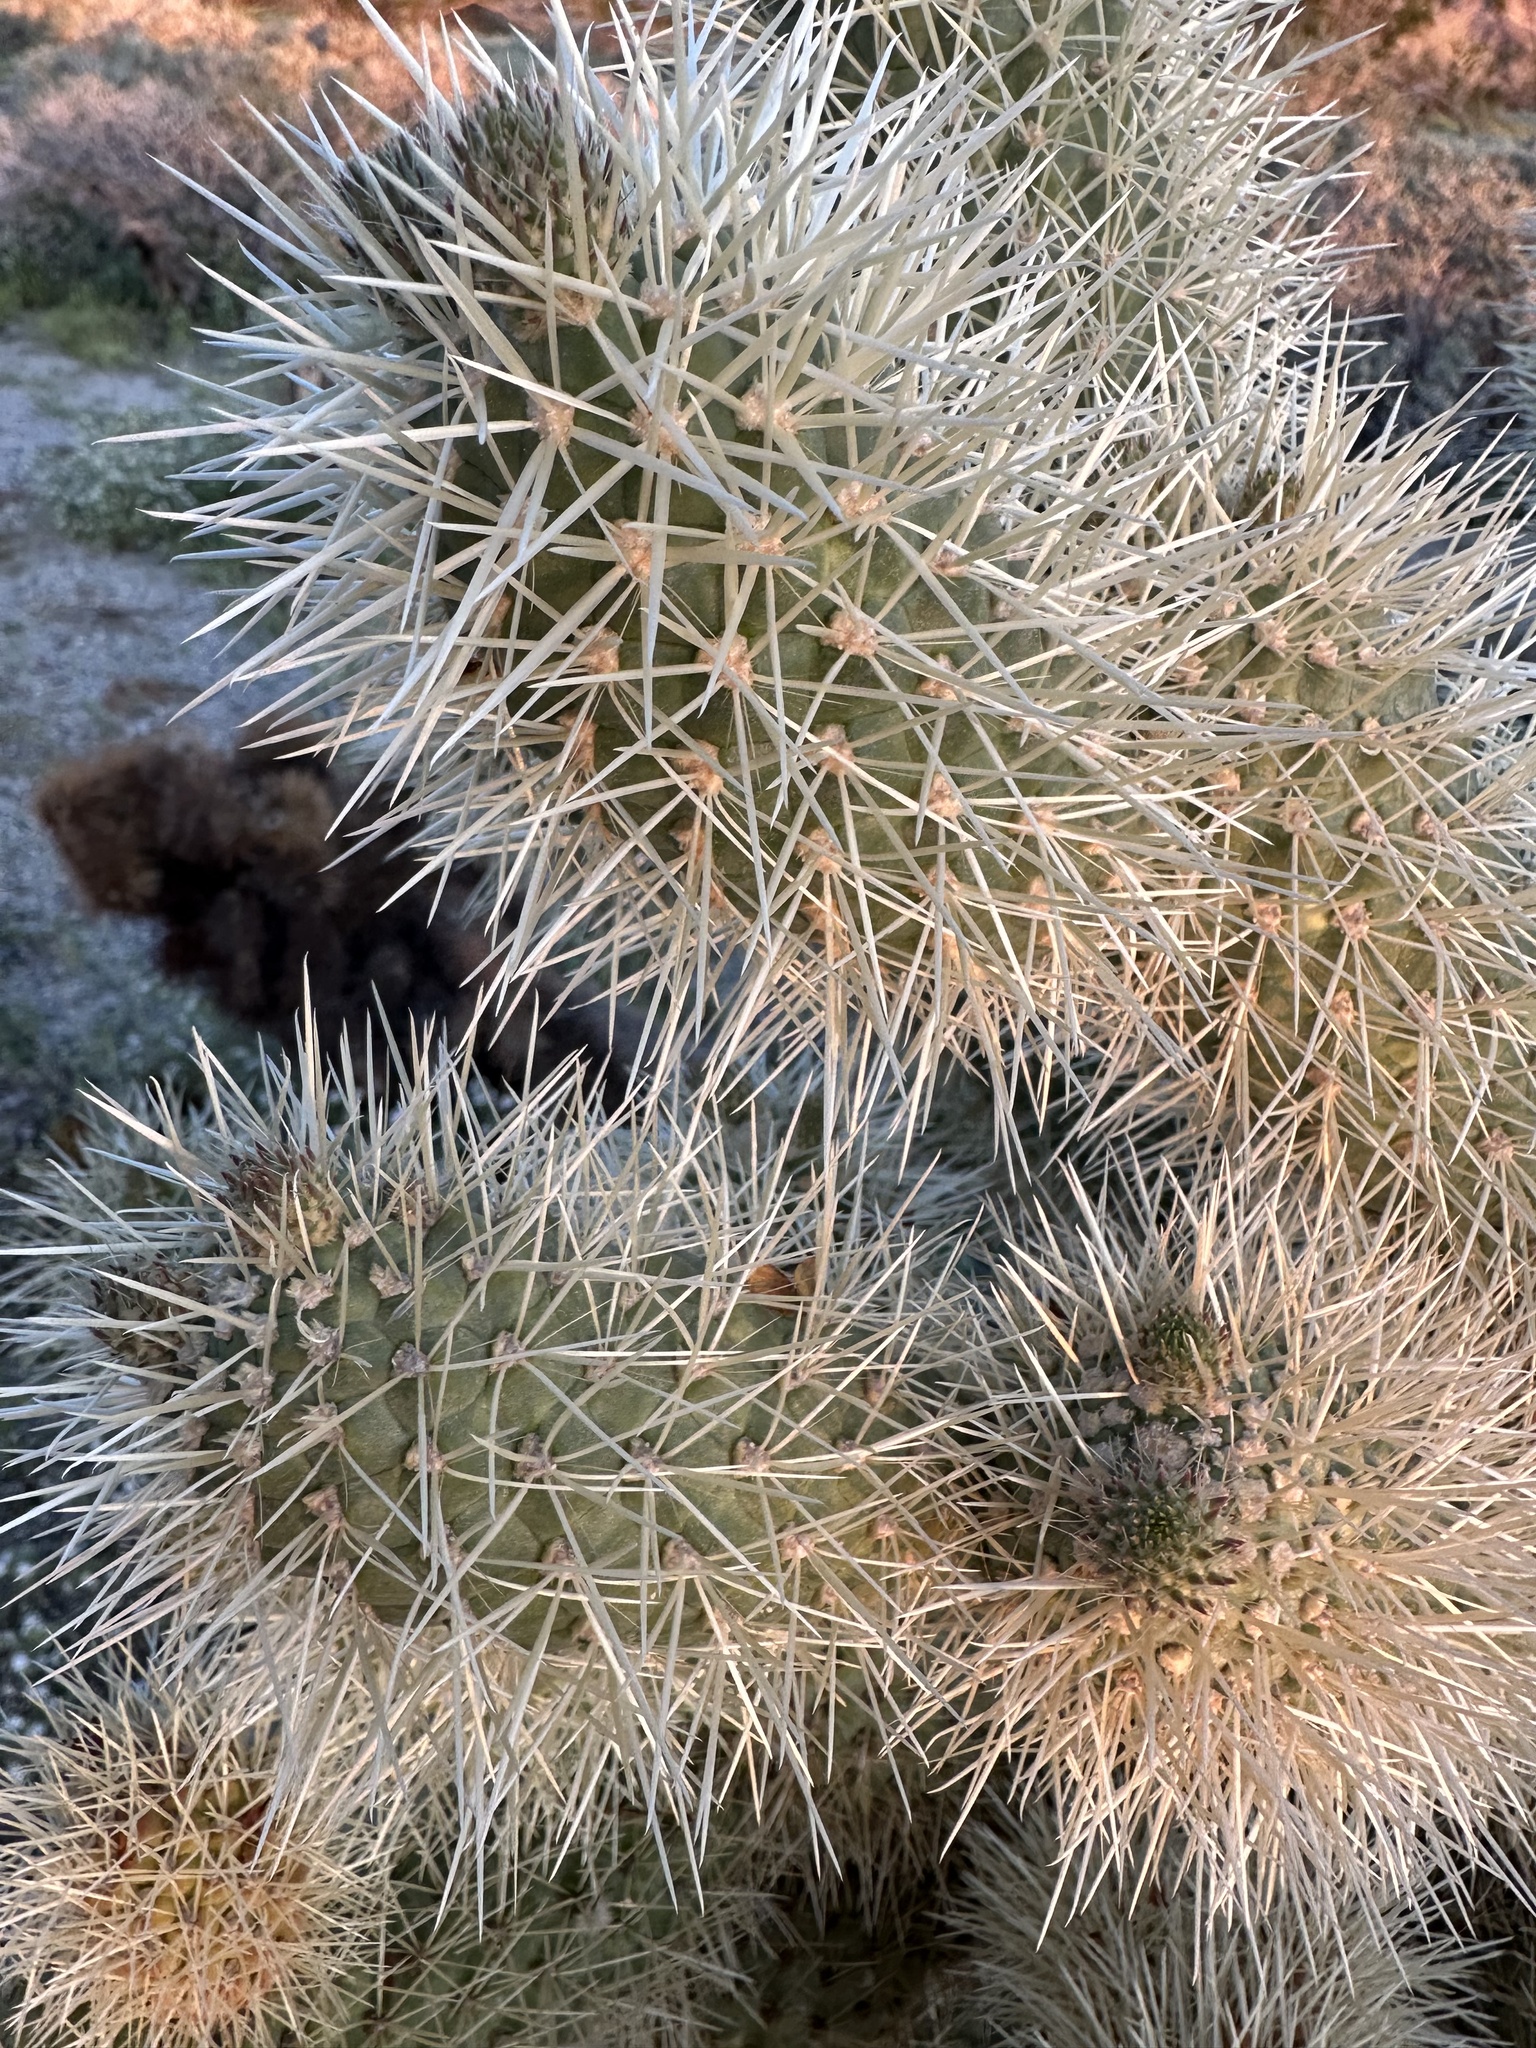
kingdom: Plantae
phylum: Tracheophyta
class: Magnoliopsida
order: Caryophyllales
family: Cactaceae
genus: Cylindropuntia
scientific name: Cylindropuntia fosbergii
